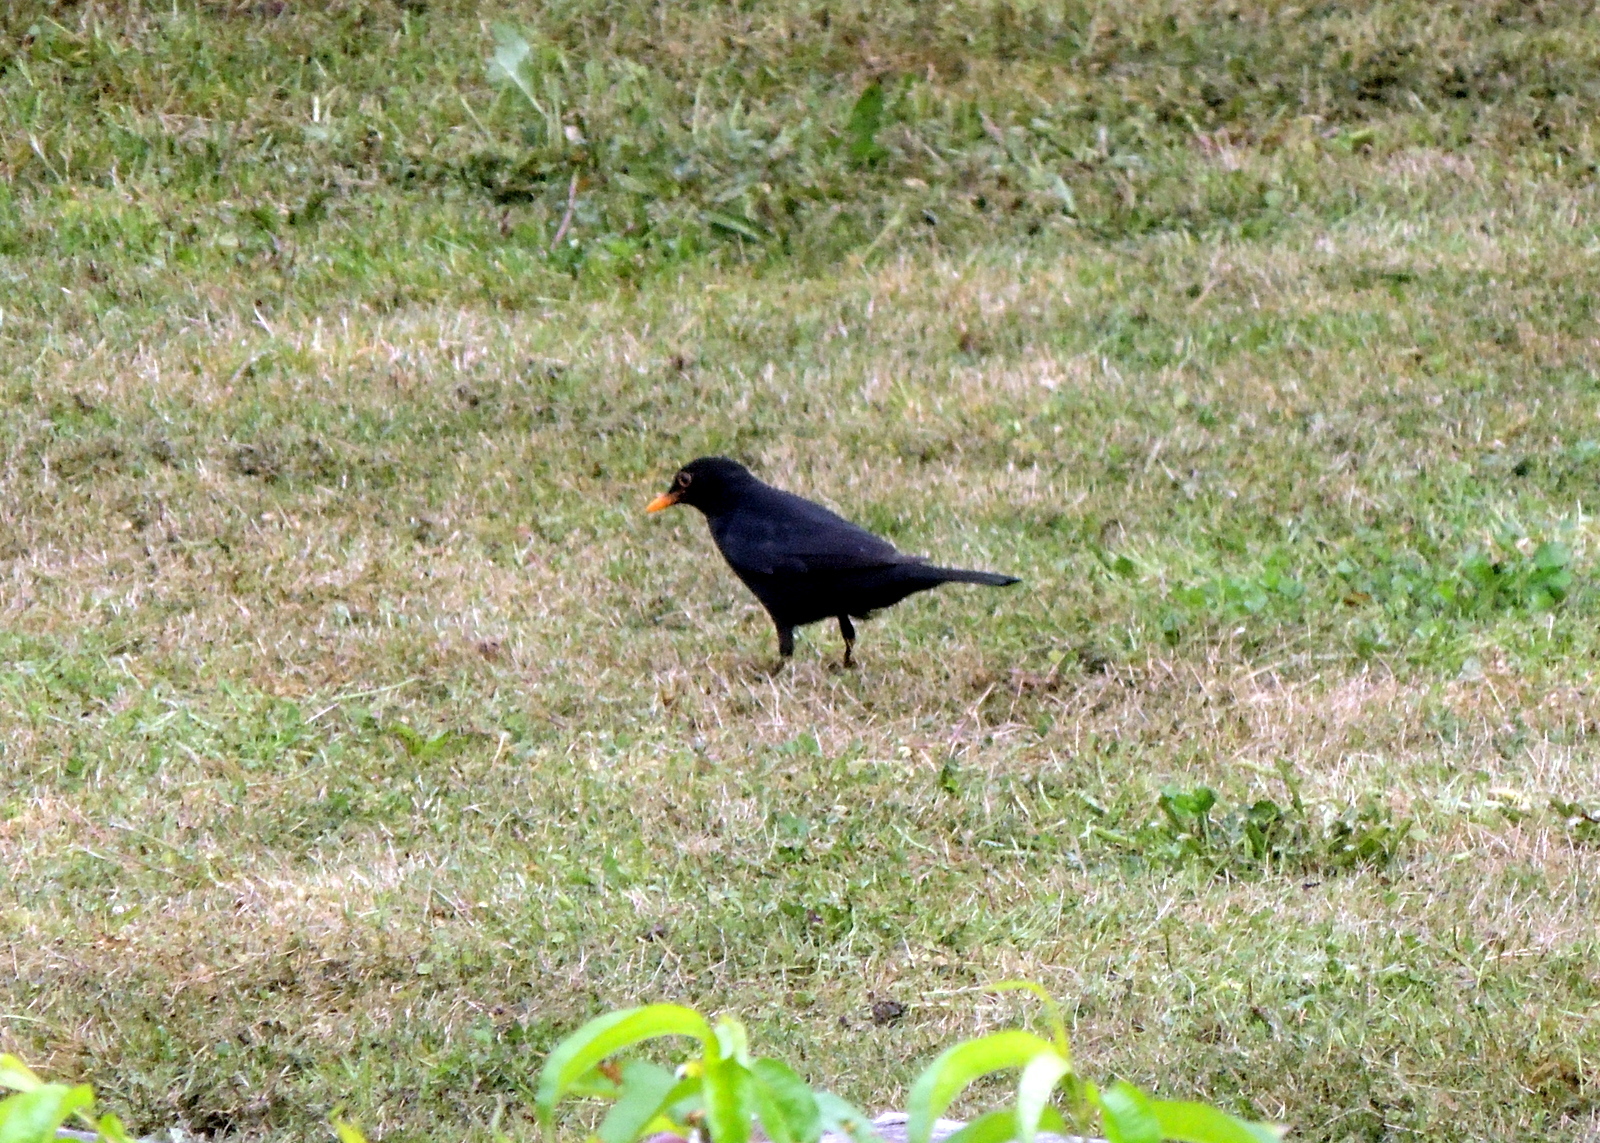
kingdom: Animalia
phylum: Chordata
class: Aves
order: Passeriformes
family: Turdidae
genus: Turdus
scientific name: Turdus merula
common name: Common blackbird
